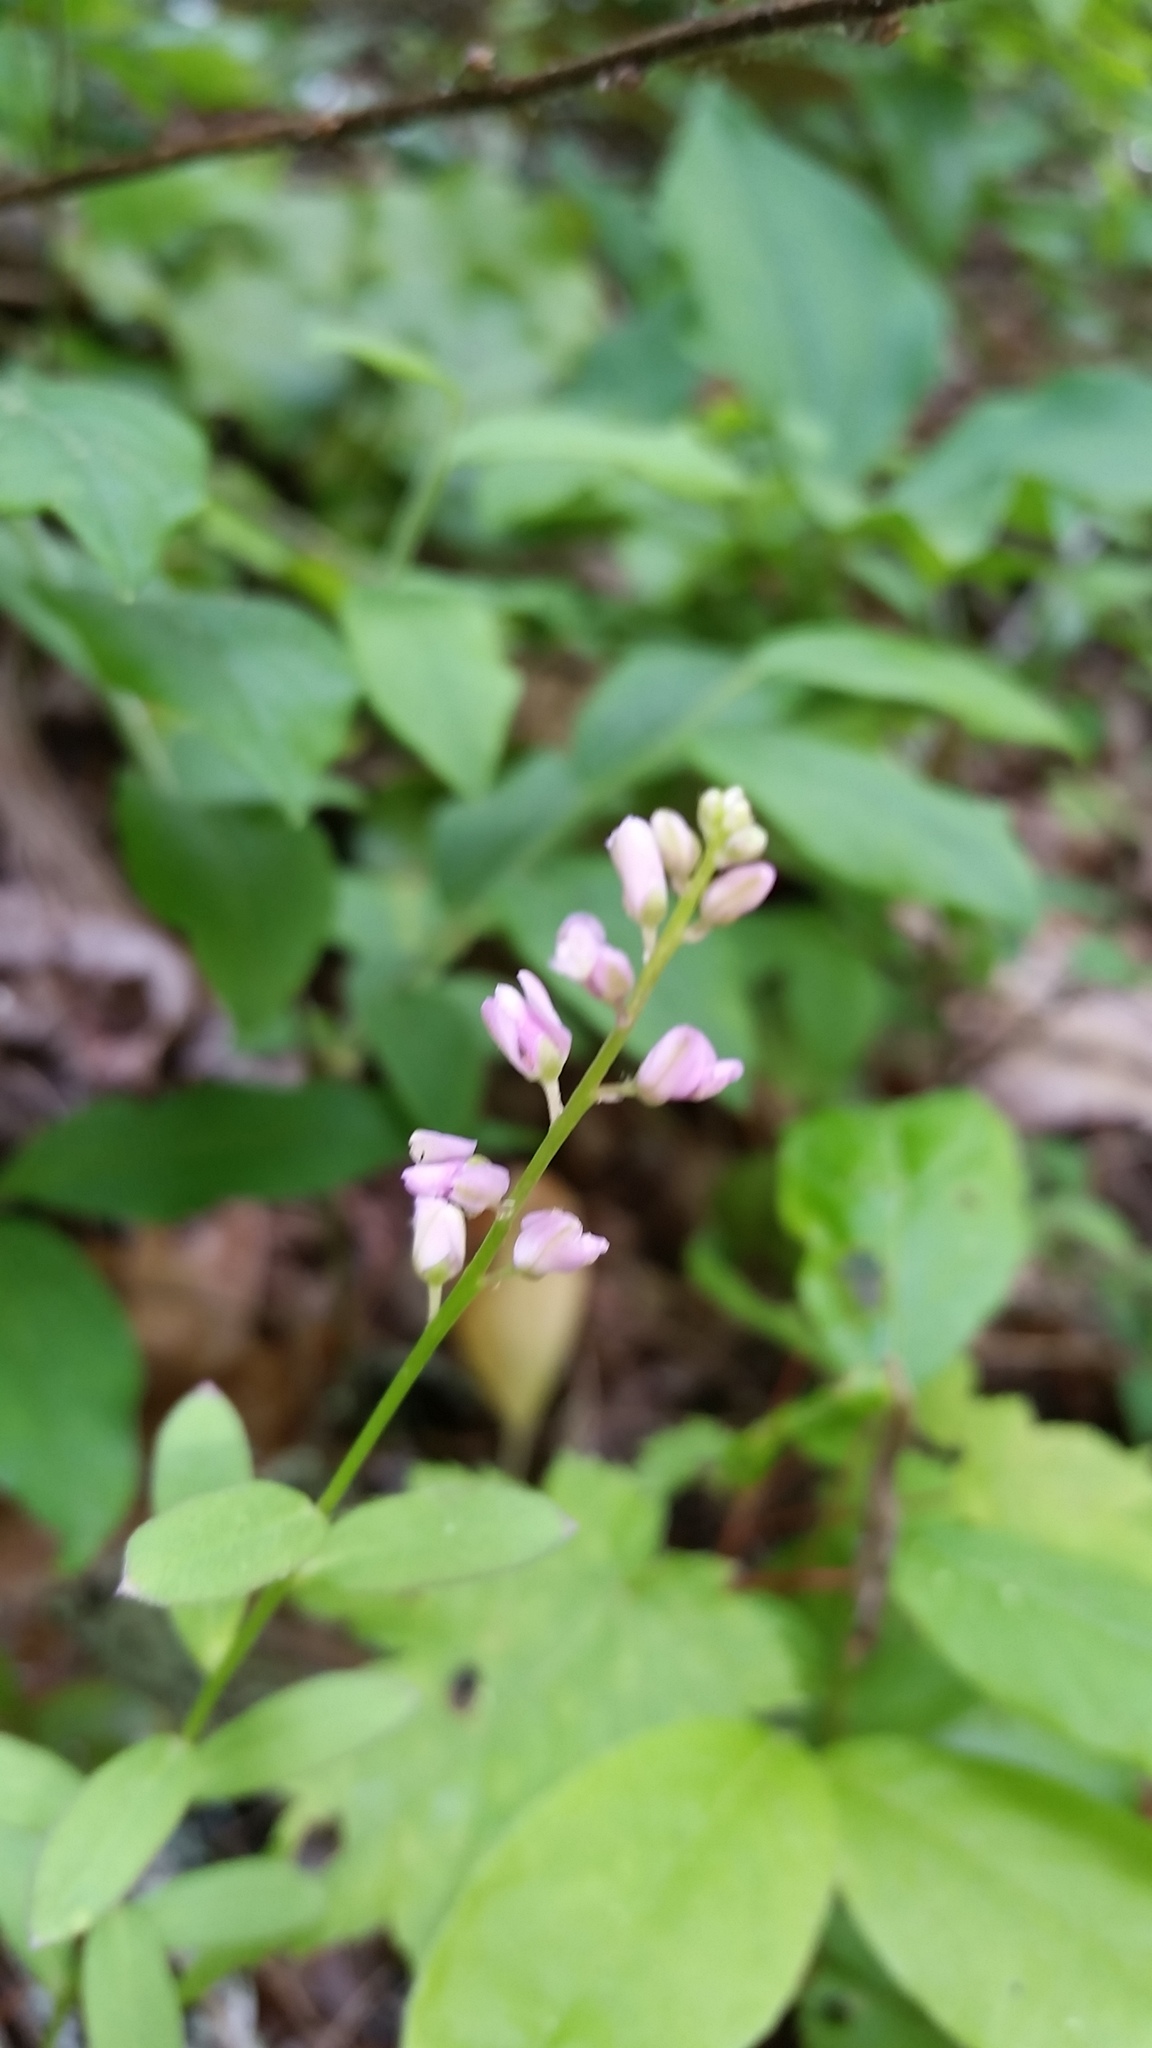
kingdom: Plantae
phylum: Tracheophyta
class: Magnoliopsida
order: Fabales
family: Polygalaceae
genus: Polygala
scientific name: Polygala polygama
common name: Bitter milkwort
